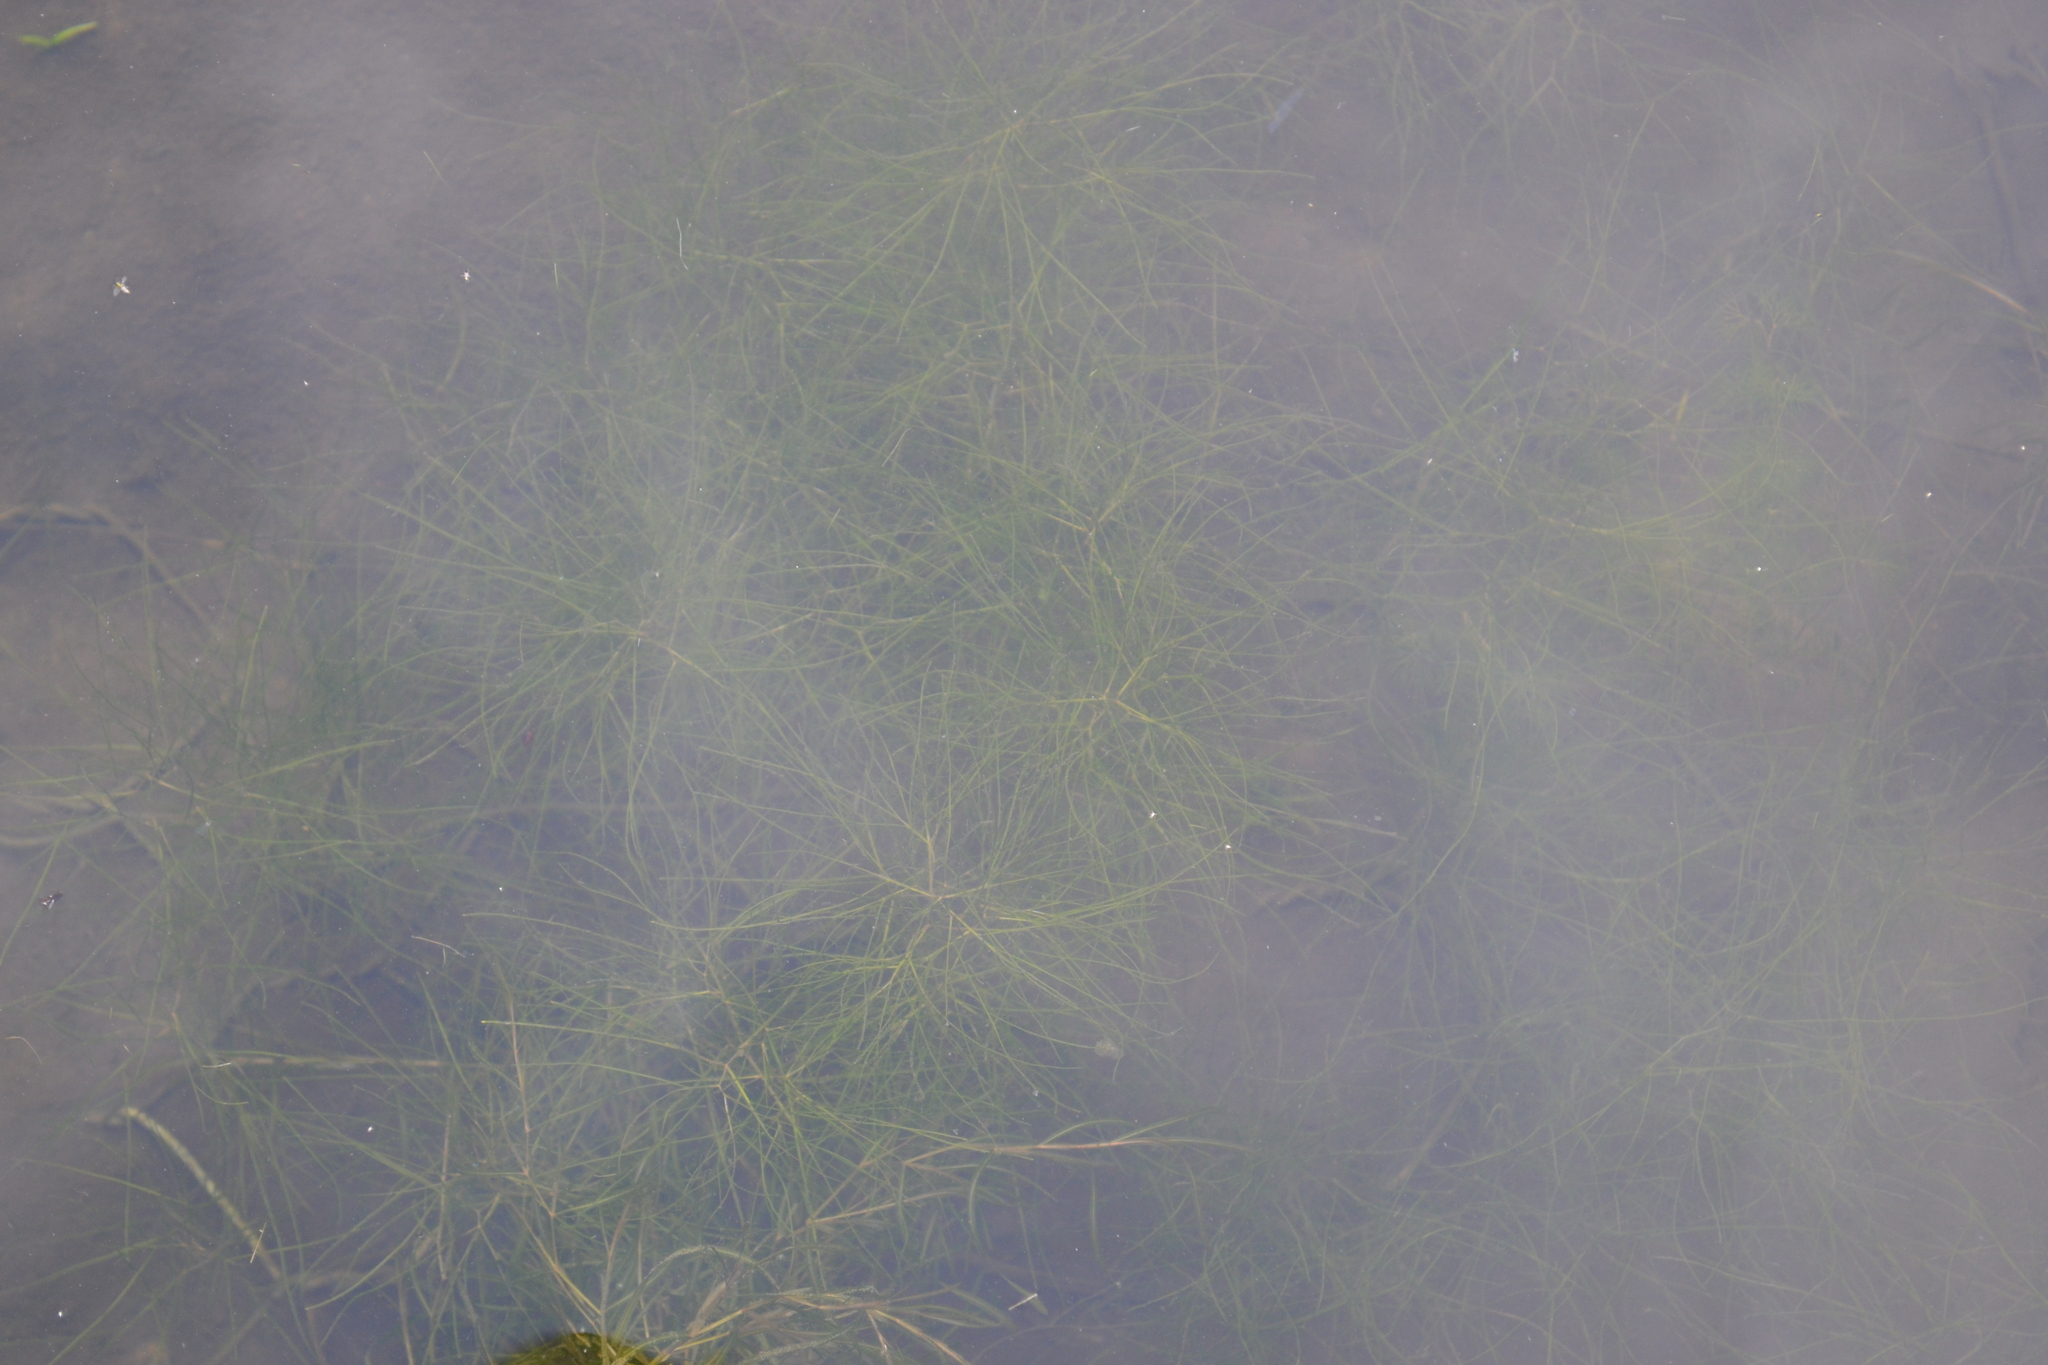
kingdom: Plantae
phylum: Tracheophyta
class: Liliopsida
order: Alismatales
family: Potamogetonaceae
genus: Stuckenia
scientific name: Stuckenia pectinata
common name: Sago pondweed
